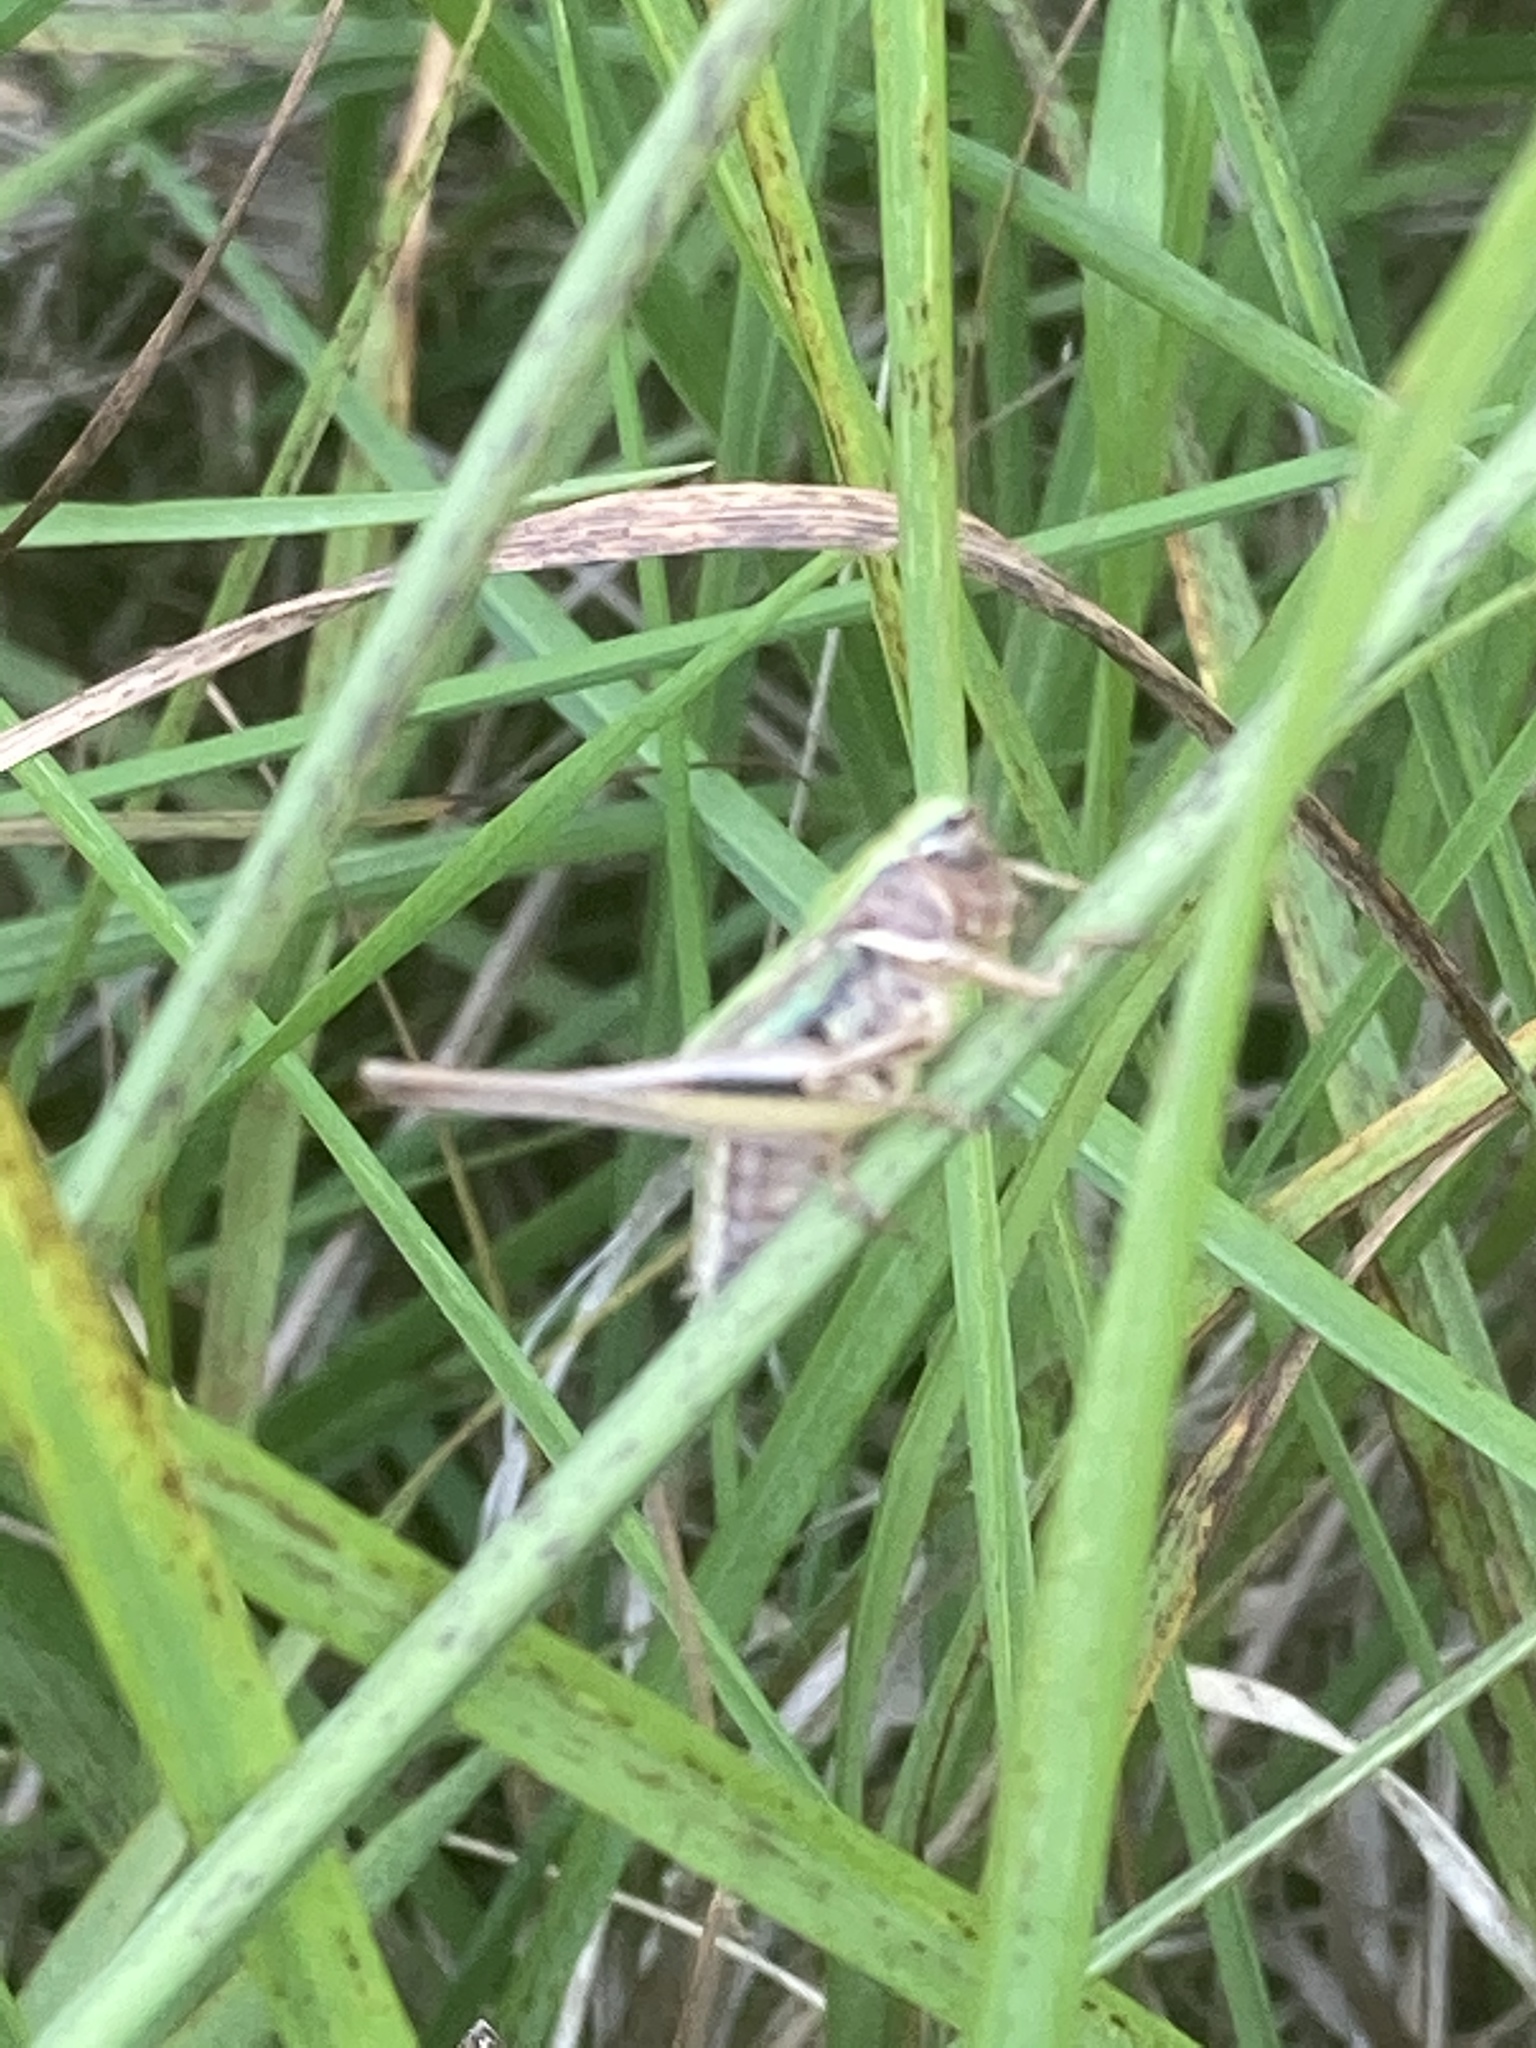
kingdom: Animalia
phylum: Arthropoda
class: Insecta
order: Orthoptera
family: Tettigoniidae
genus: Metrioptera
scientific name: Metrioptera brachyptera
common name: Bog bush-cricket
